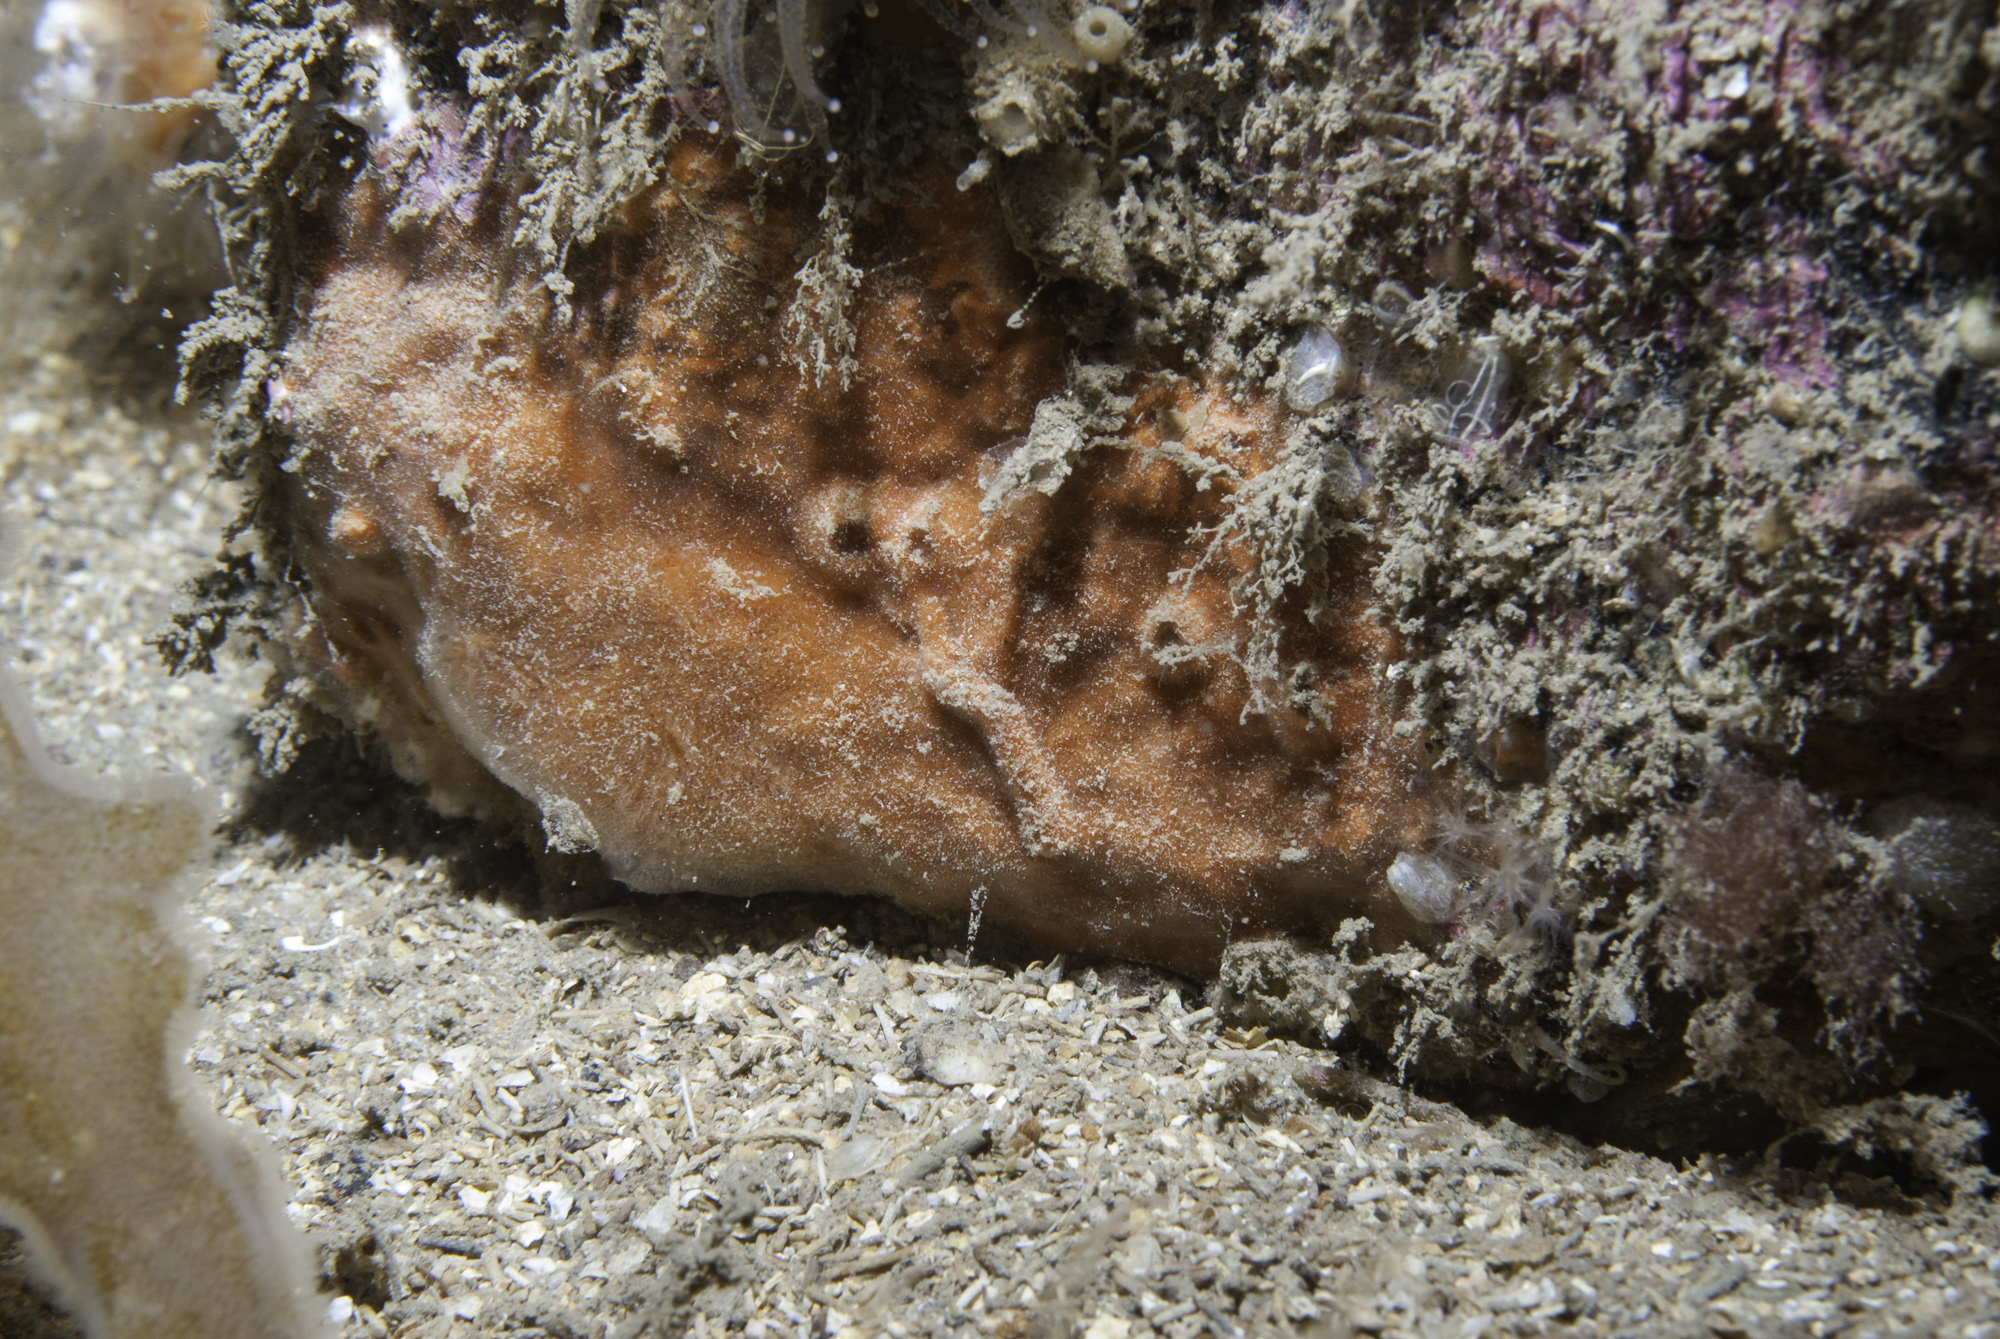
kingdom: Animalia
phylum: Porifera
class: Demospongiae
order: Poecilosclerida
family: Microcionidae
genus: Clathria
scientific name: Clathria strepsitoxa
